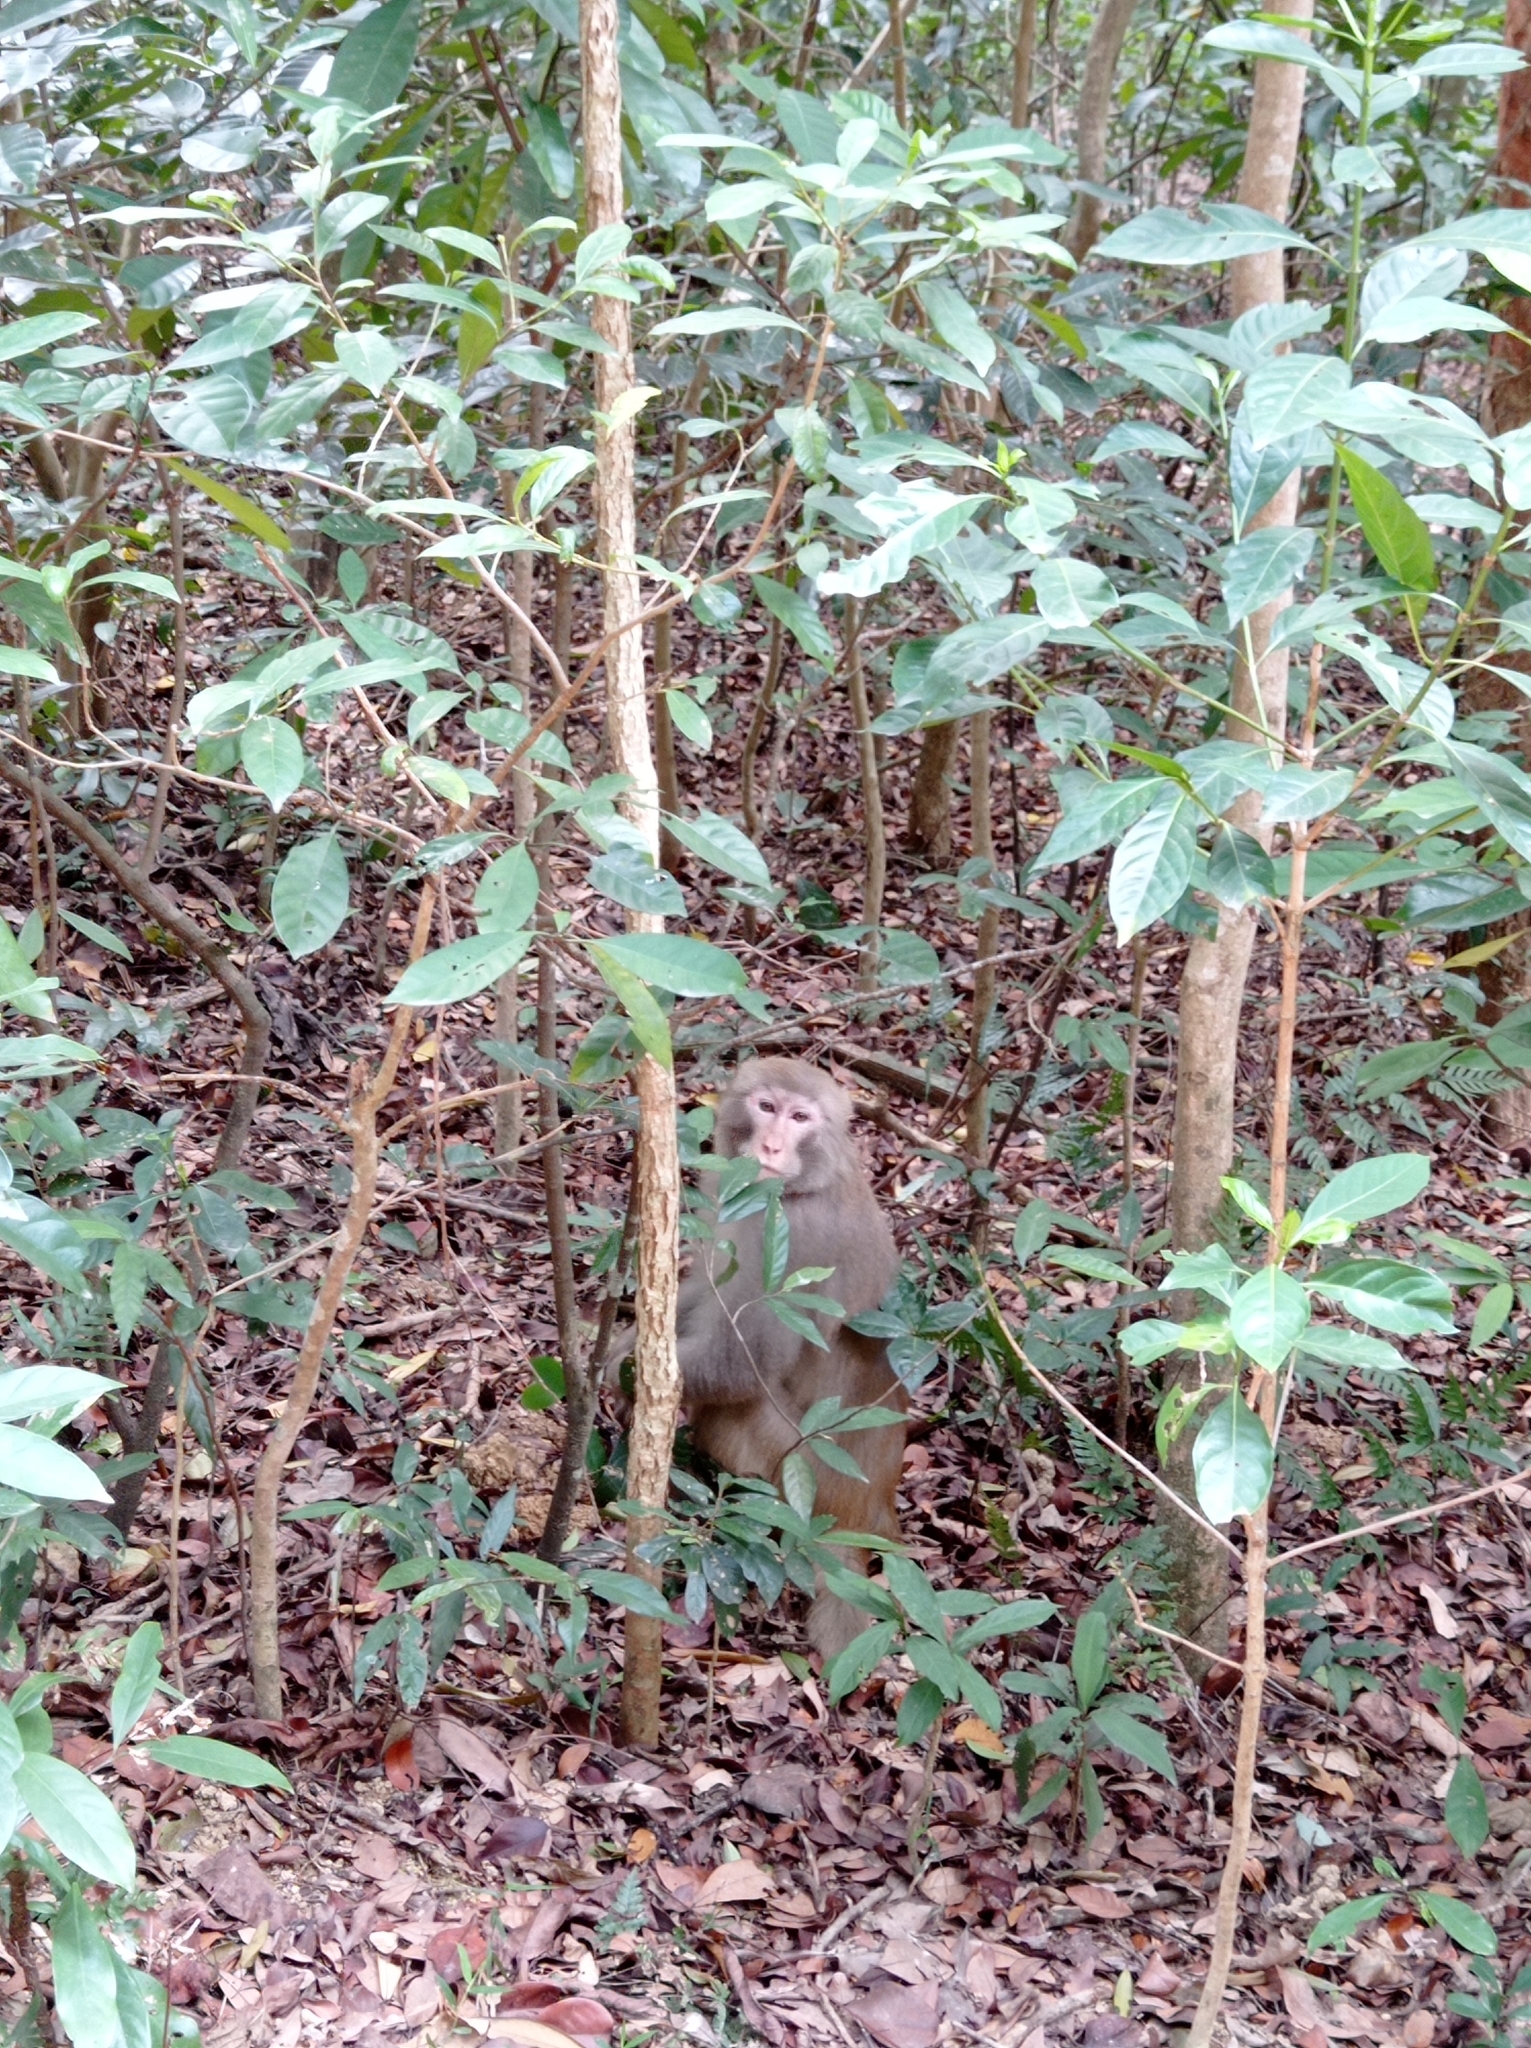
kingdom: Animalia
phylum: Chordata
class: Mammalia
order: Primates
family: Cercopithecidae
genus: Macaca
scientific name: Macaca mulatta
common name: Rhesus monkey
